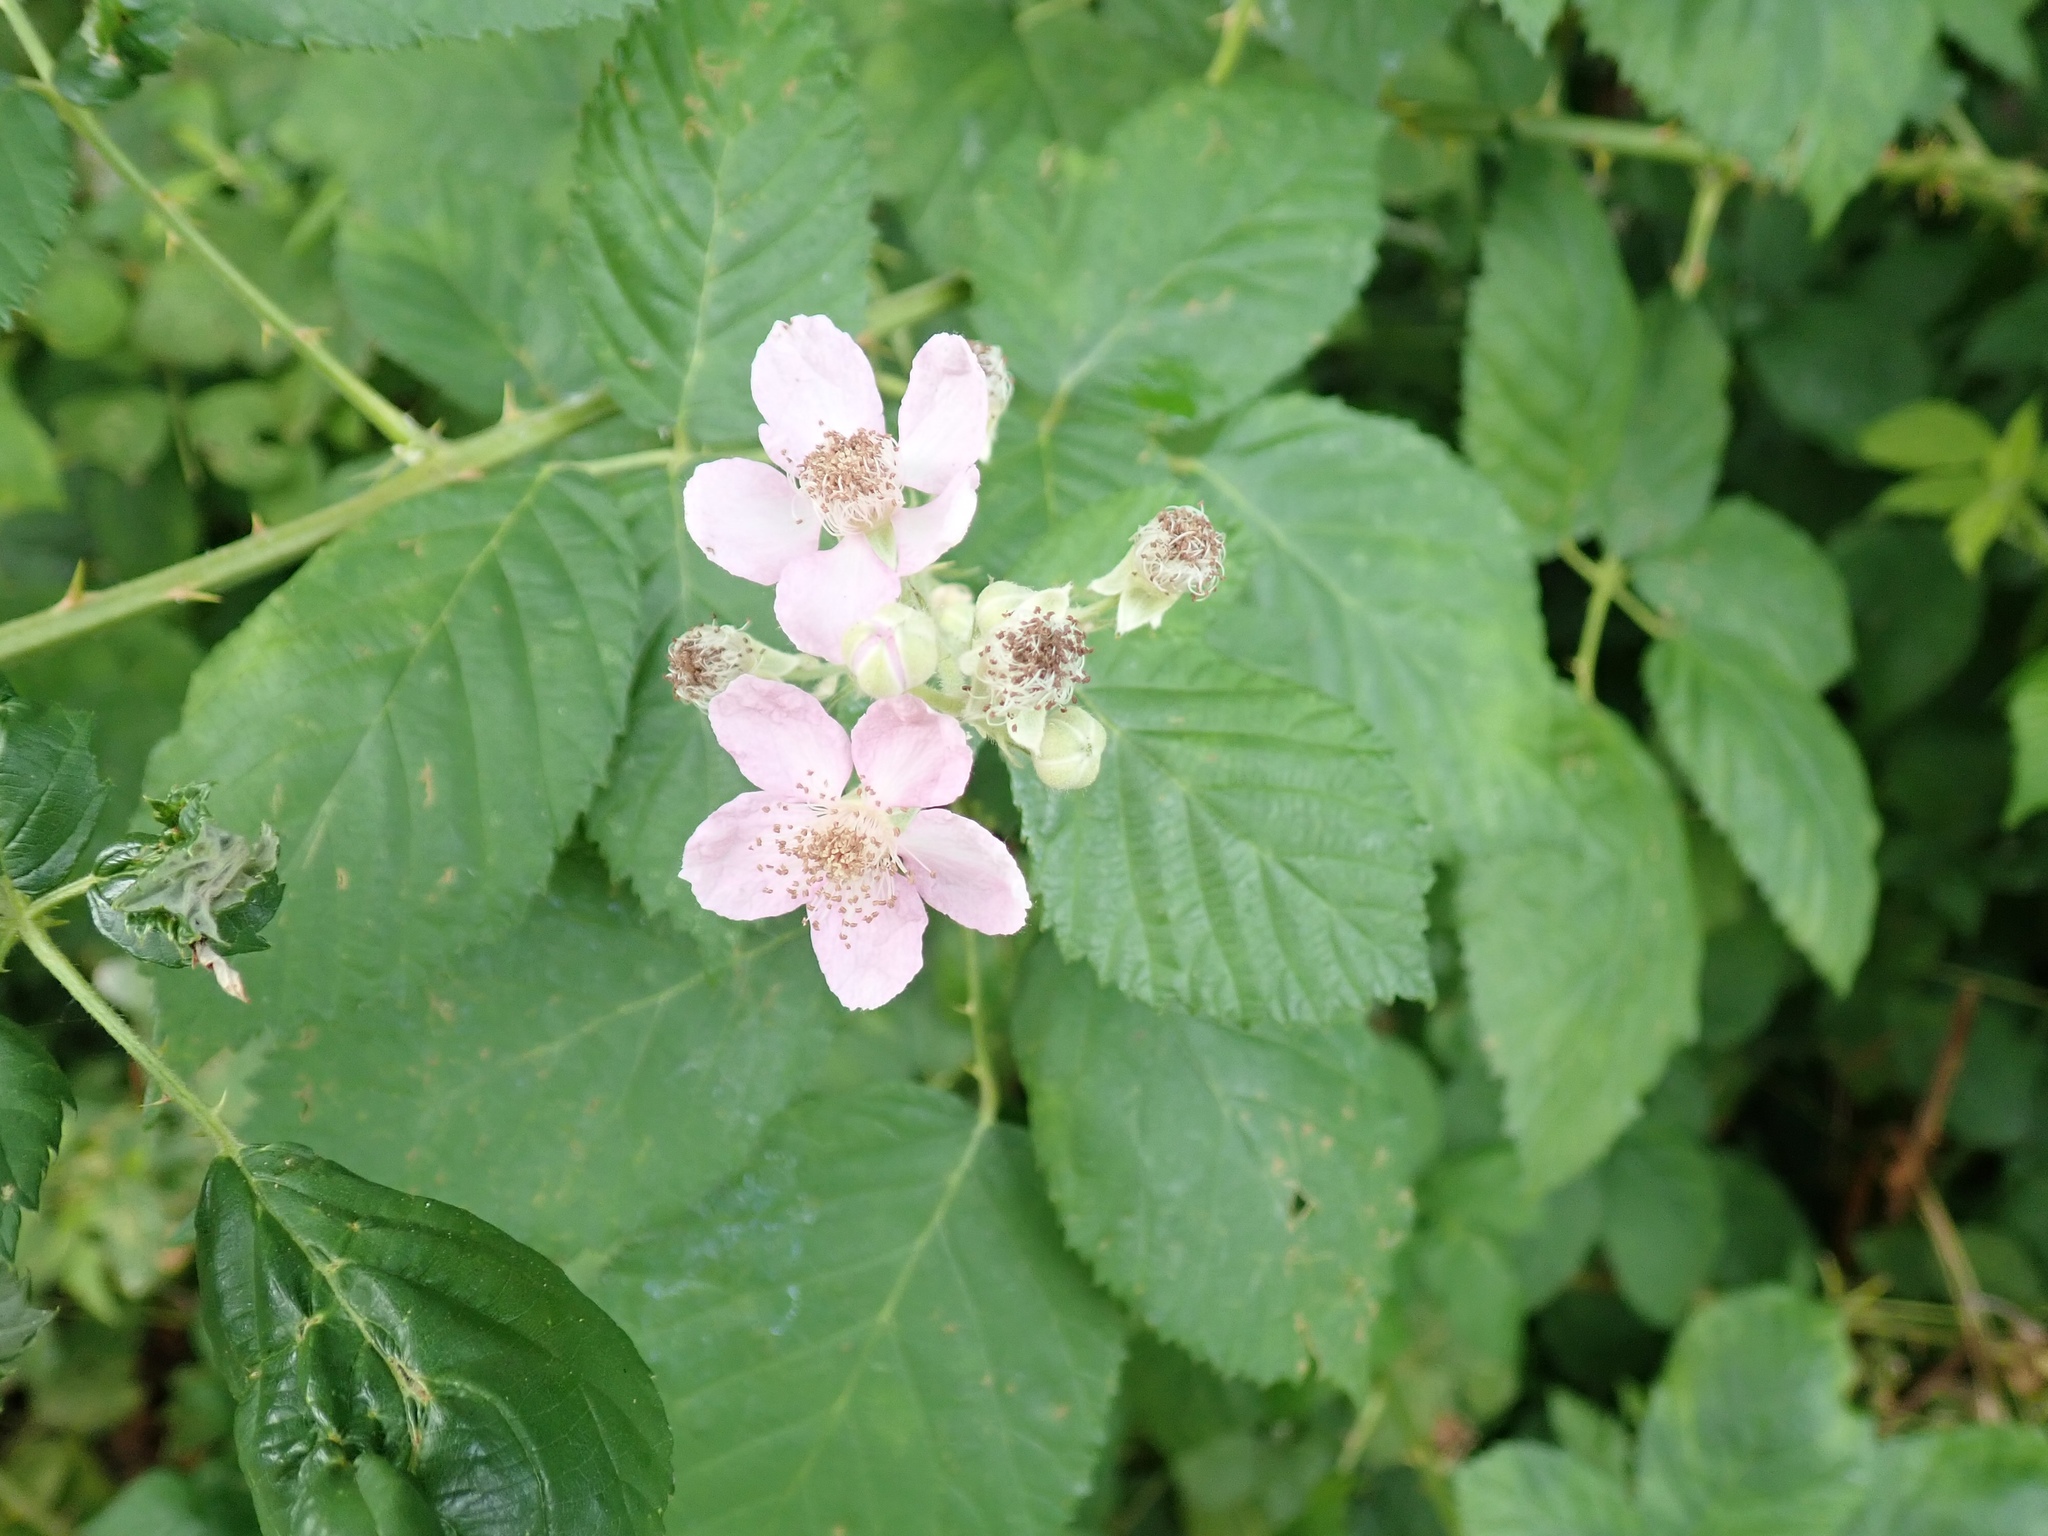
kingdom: Plantae
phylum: Tracheophyta
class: Magnoliopsida
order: Rosales
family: Rosaceae
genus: Rubus
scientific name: Rubus bifrons
